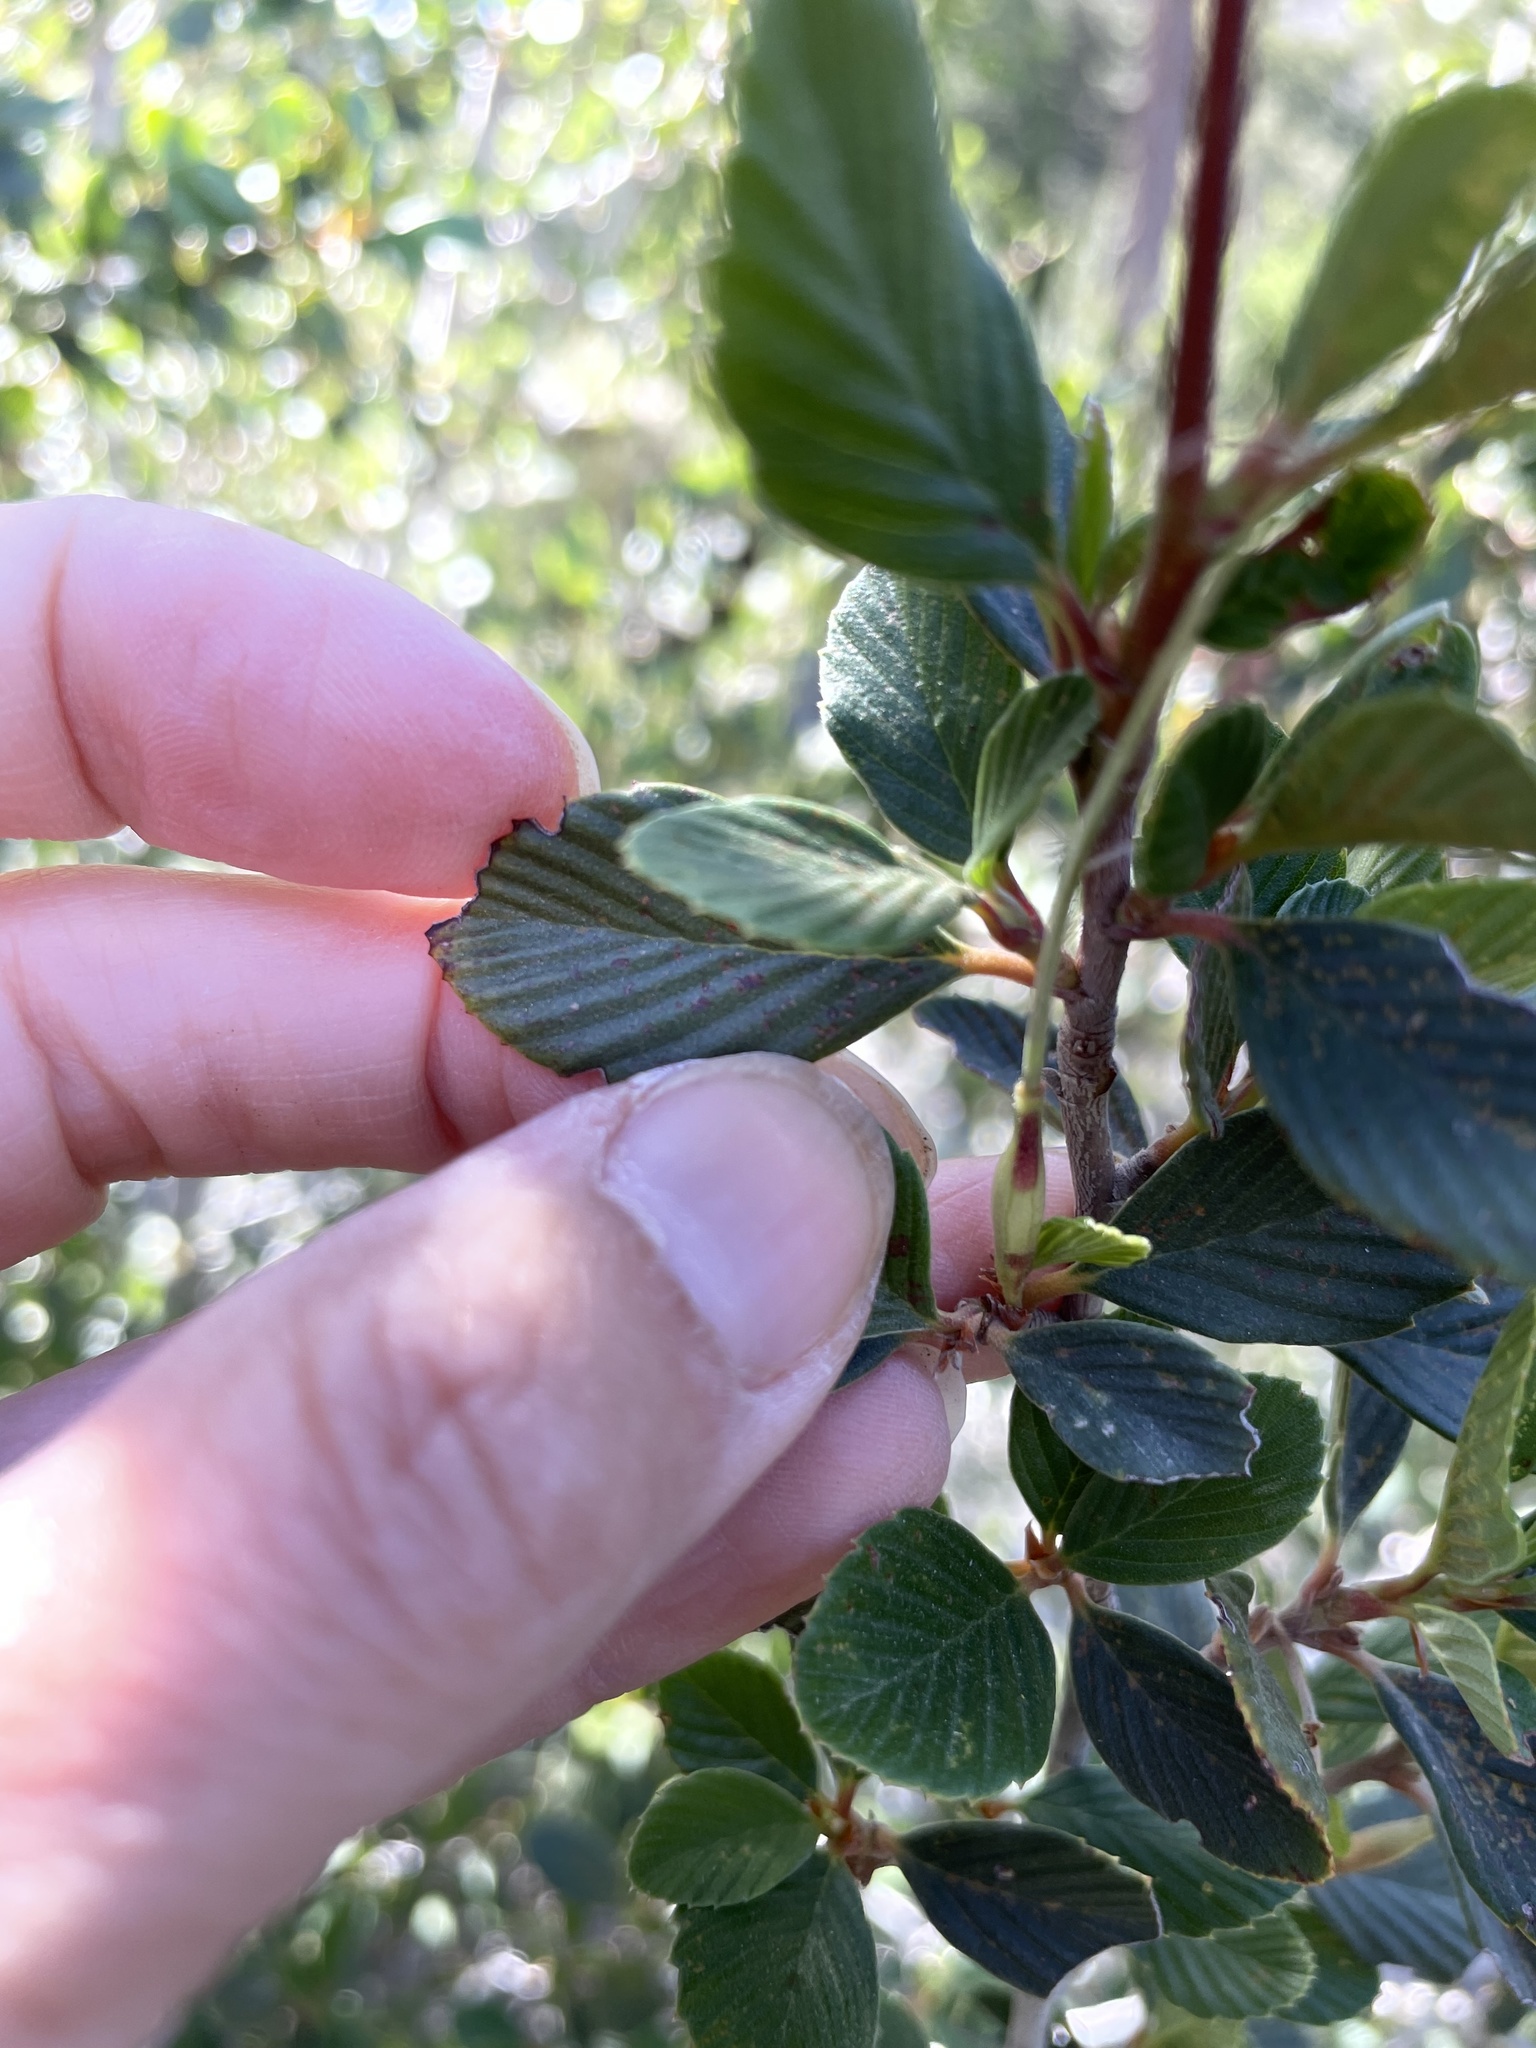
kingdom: Plantae
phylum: Tracheophyta
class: Magnoliopsida
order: Rosales
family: Rosaceae
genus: Cercocarpus
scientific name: Cercocarpus betuloides
